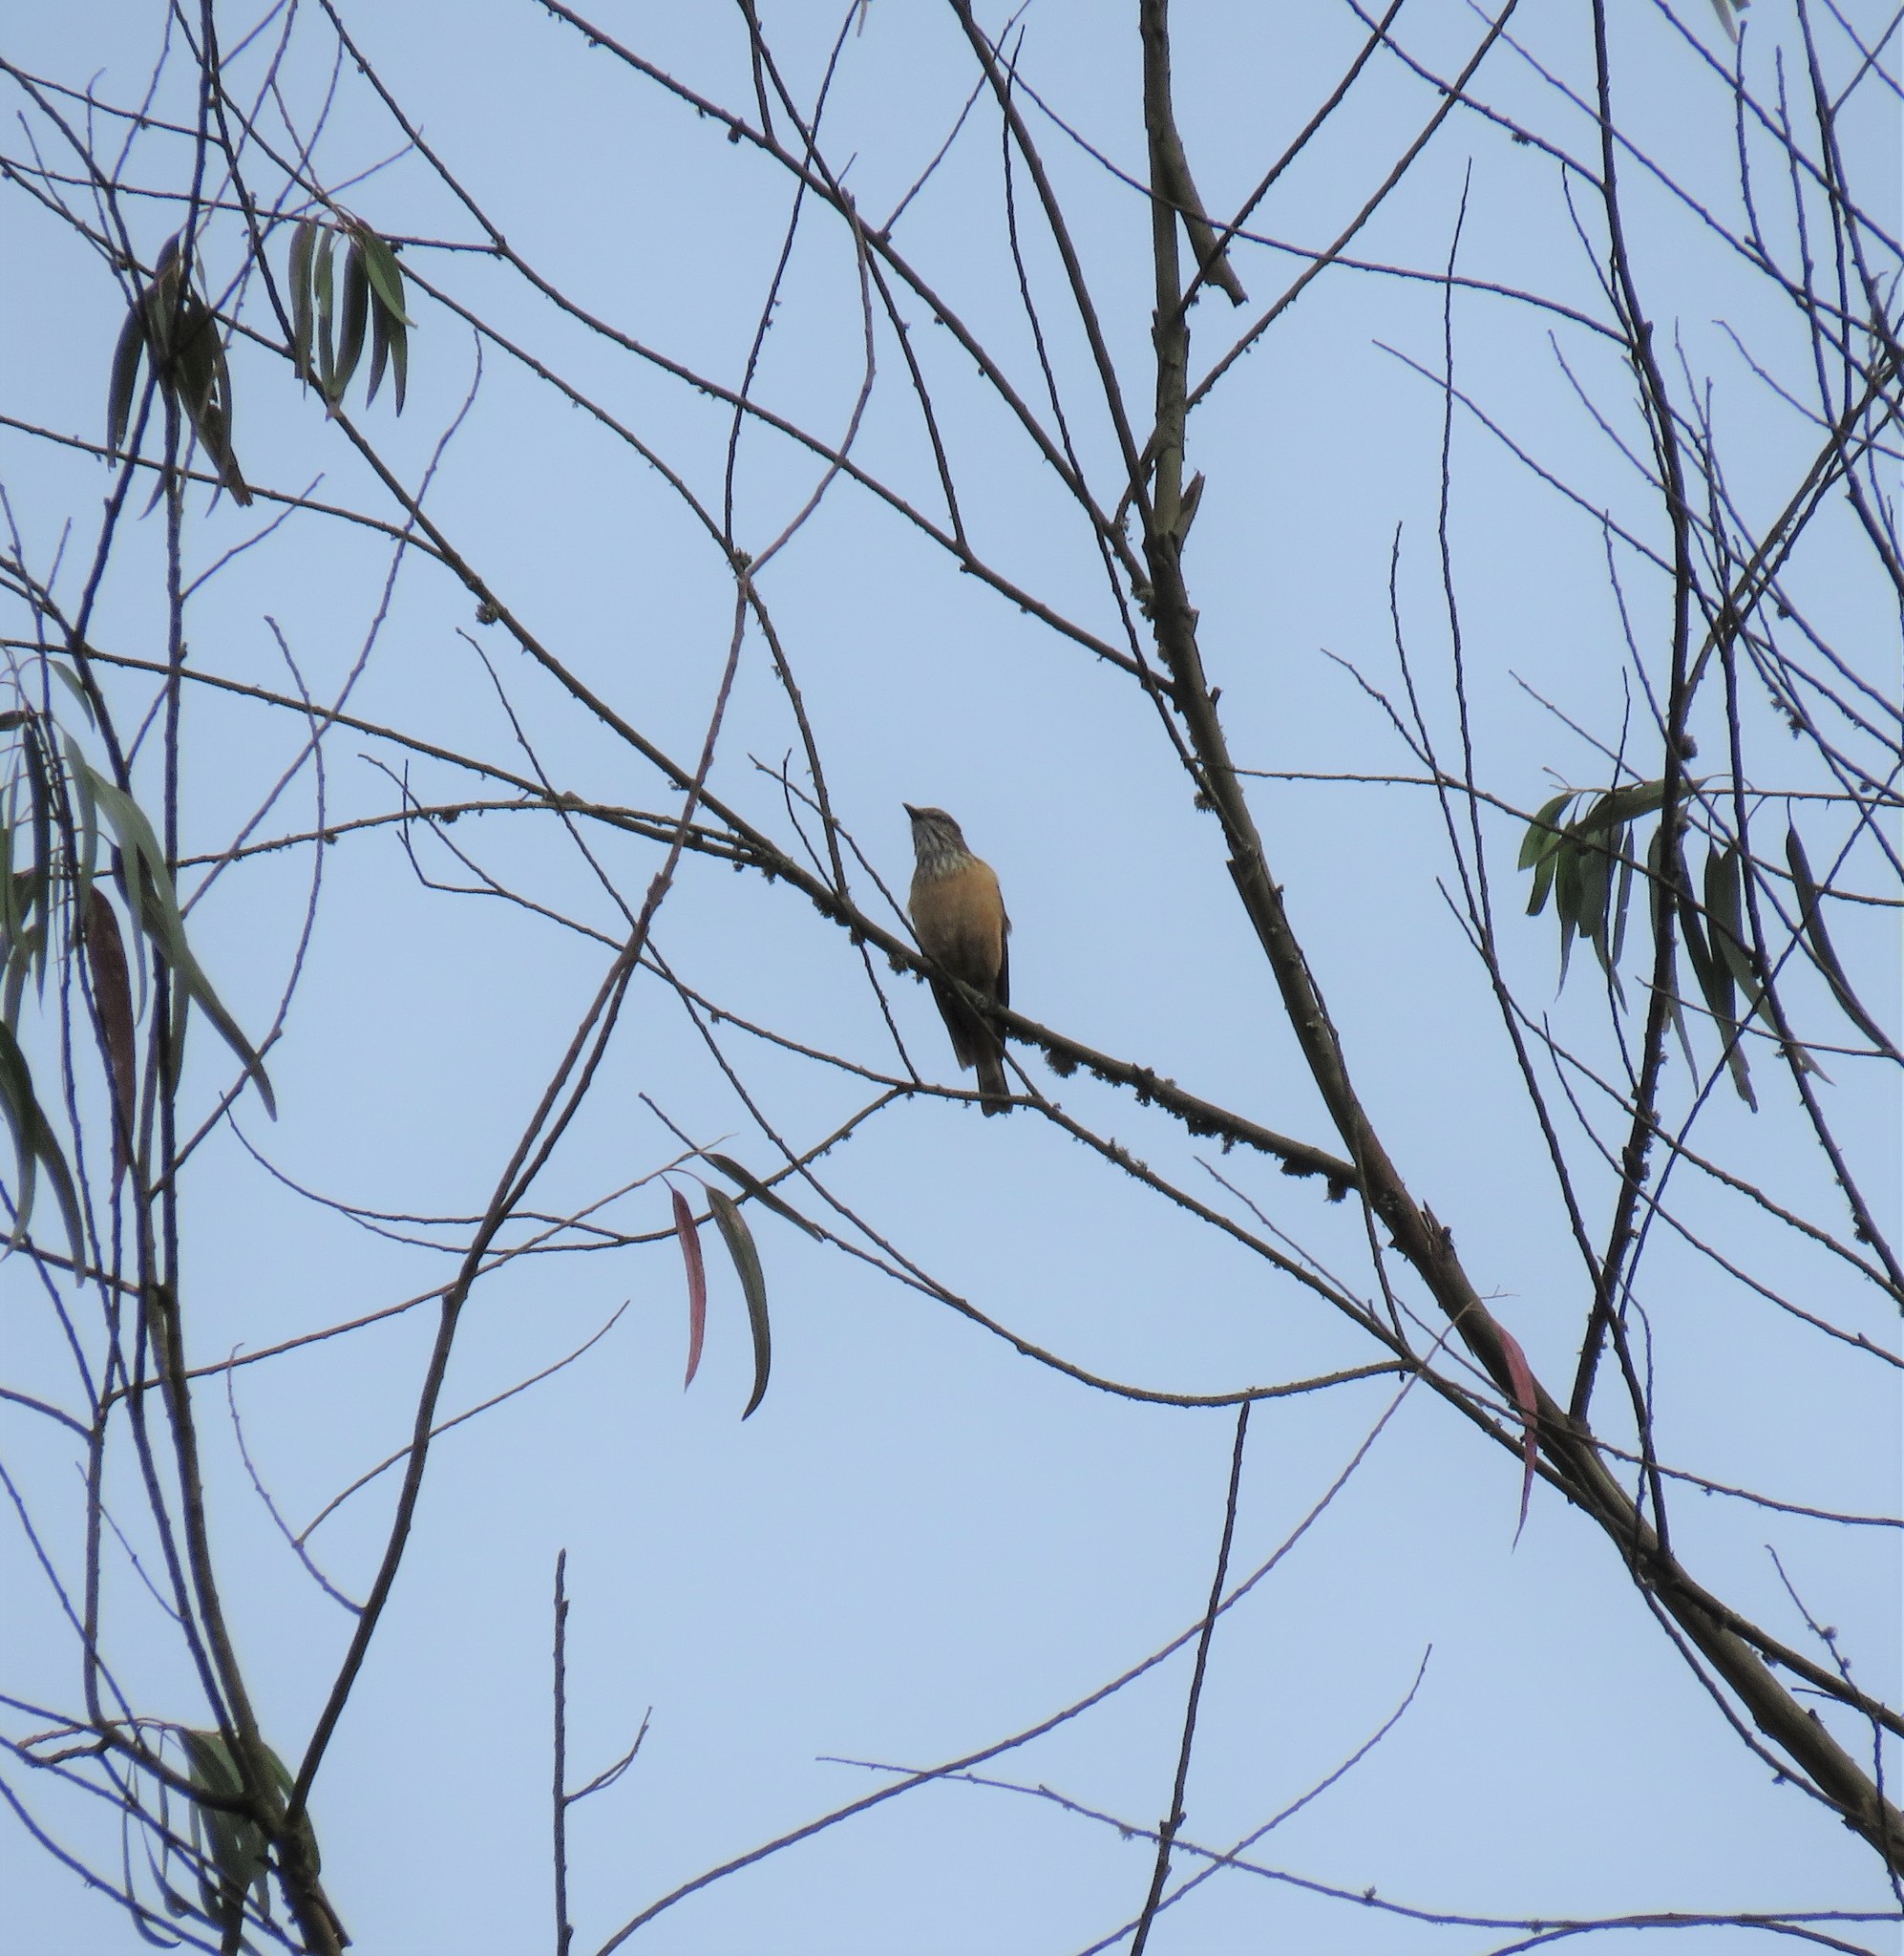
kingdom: Animalia
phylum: Chordata
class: Aves
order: Passeriformes
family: Tyrannidae
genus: Myiotheretes
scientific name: Myiotheretes striaticollis
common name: Streak-throated bush tyrant
